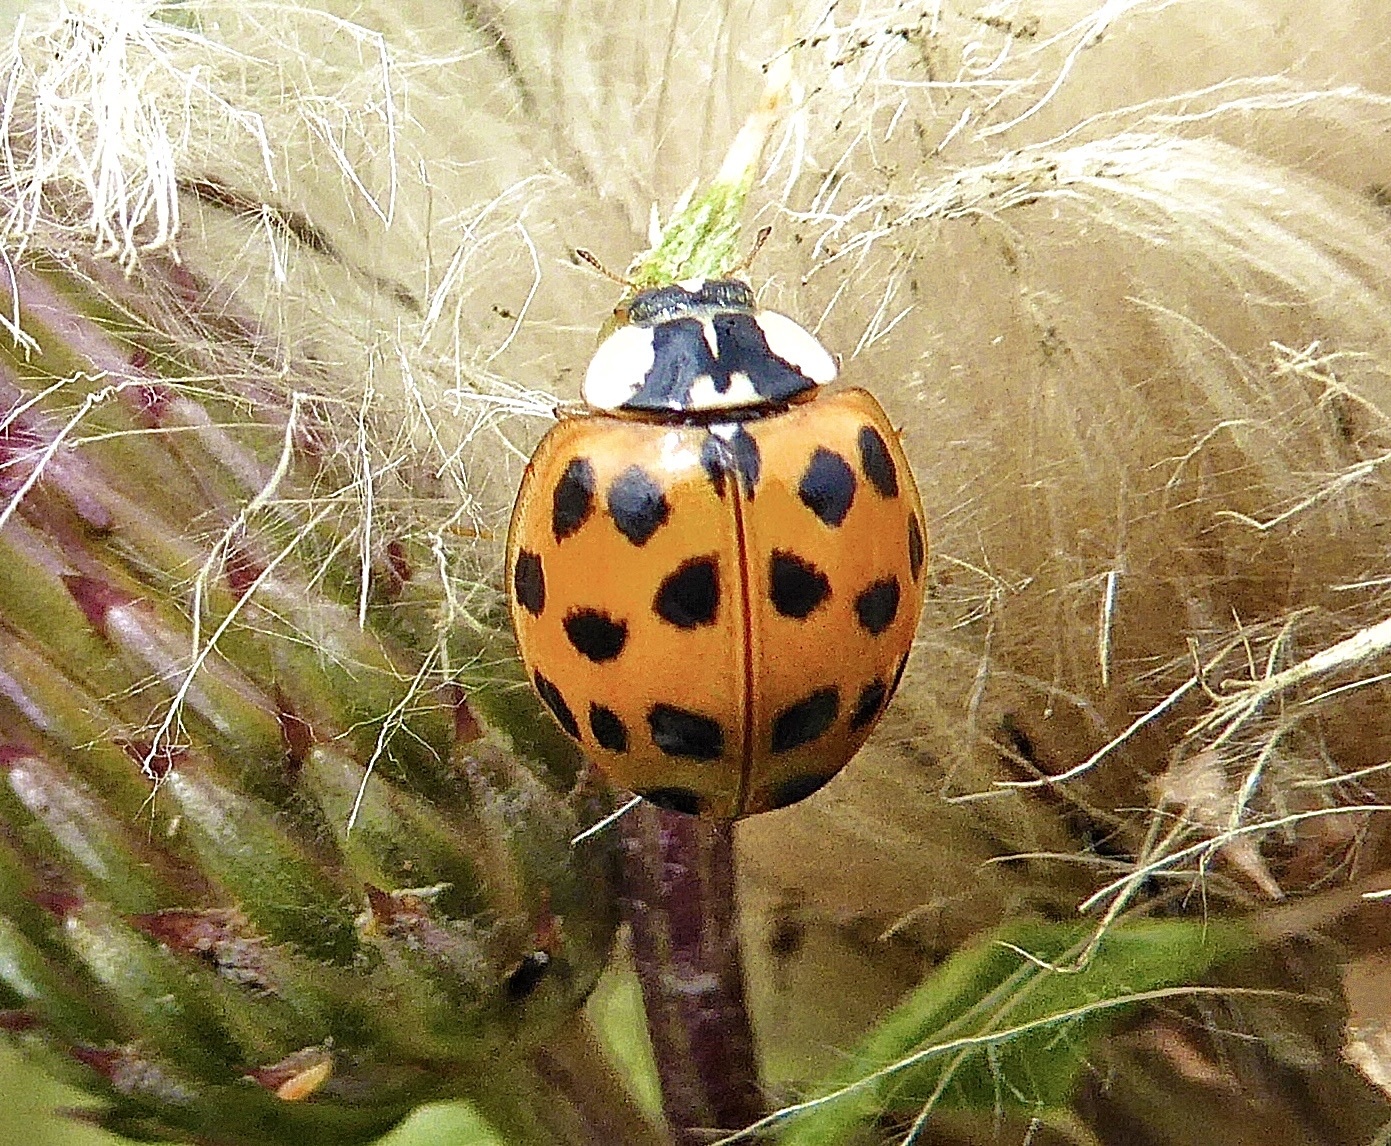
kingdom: Animalia
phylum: Arthropoda
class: Insecta
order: Coleoptera
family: Coccinellidae
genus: Harmonia
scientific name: Harmonia axyridis
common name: Harlequin ladybird
